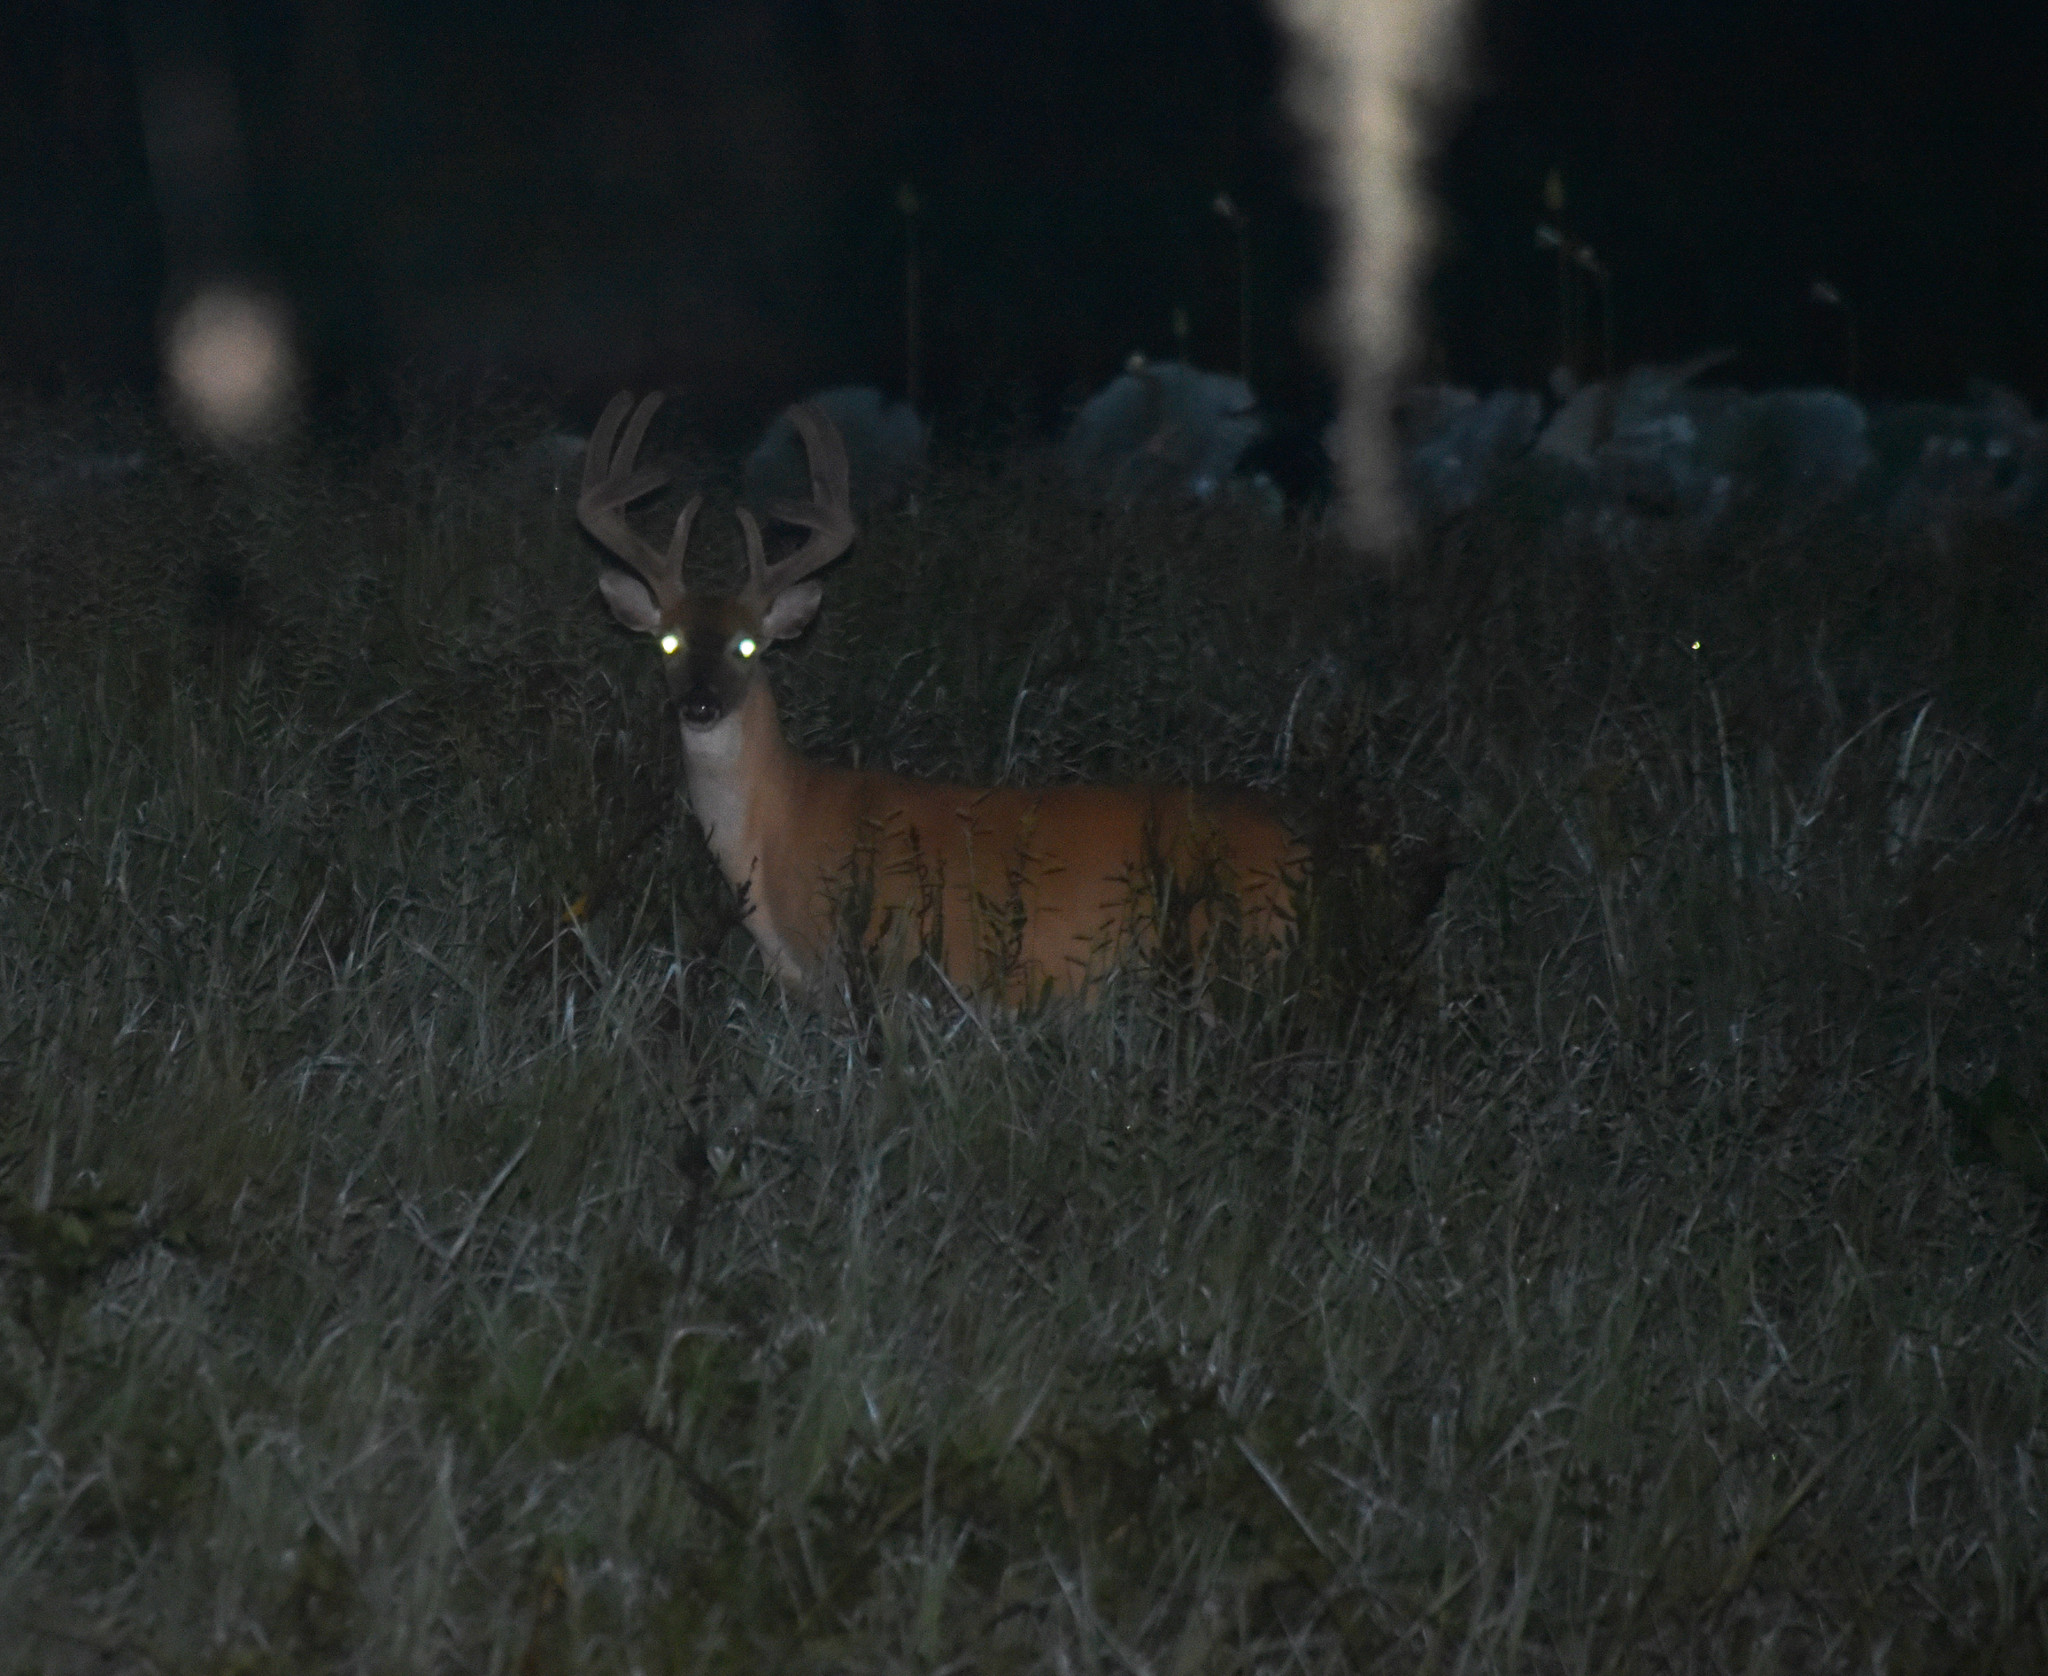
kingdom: Animalia
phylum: Chordata
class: Mammalia
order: Artiodactyla
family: Cervidae
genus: Odocoileus
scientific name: Odocoileus virginianus
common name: White-tailed deer
